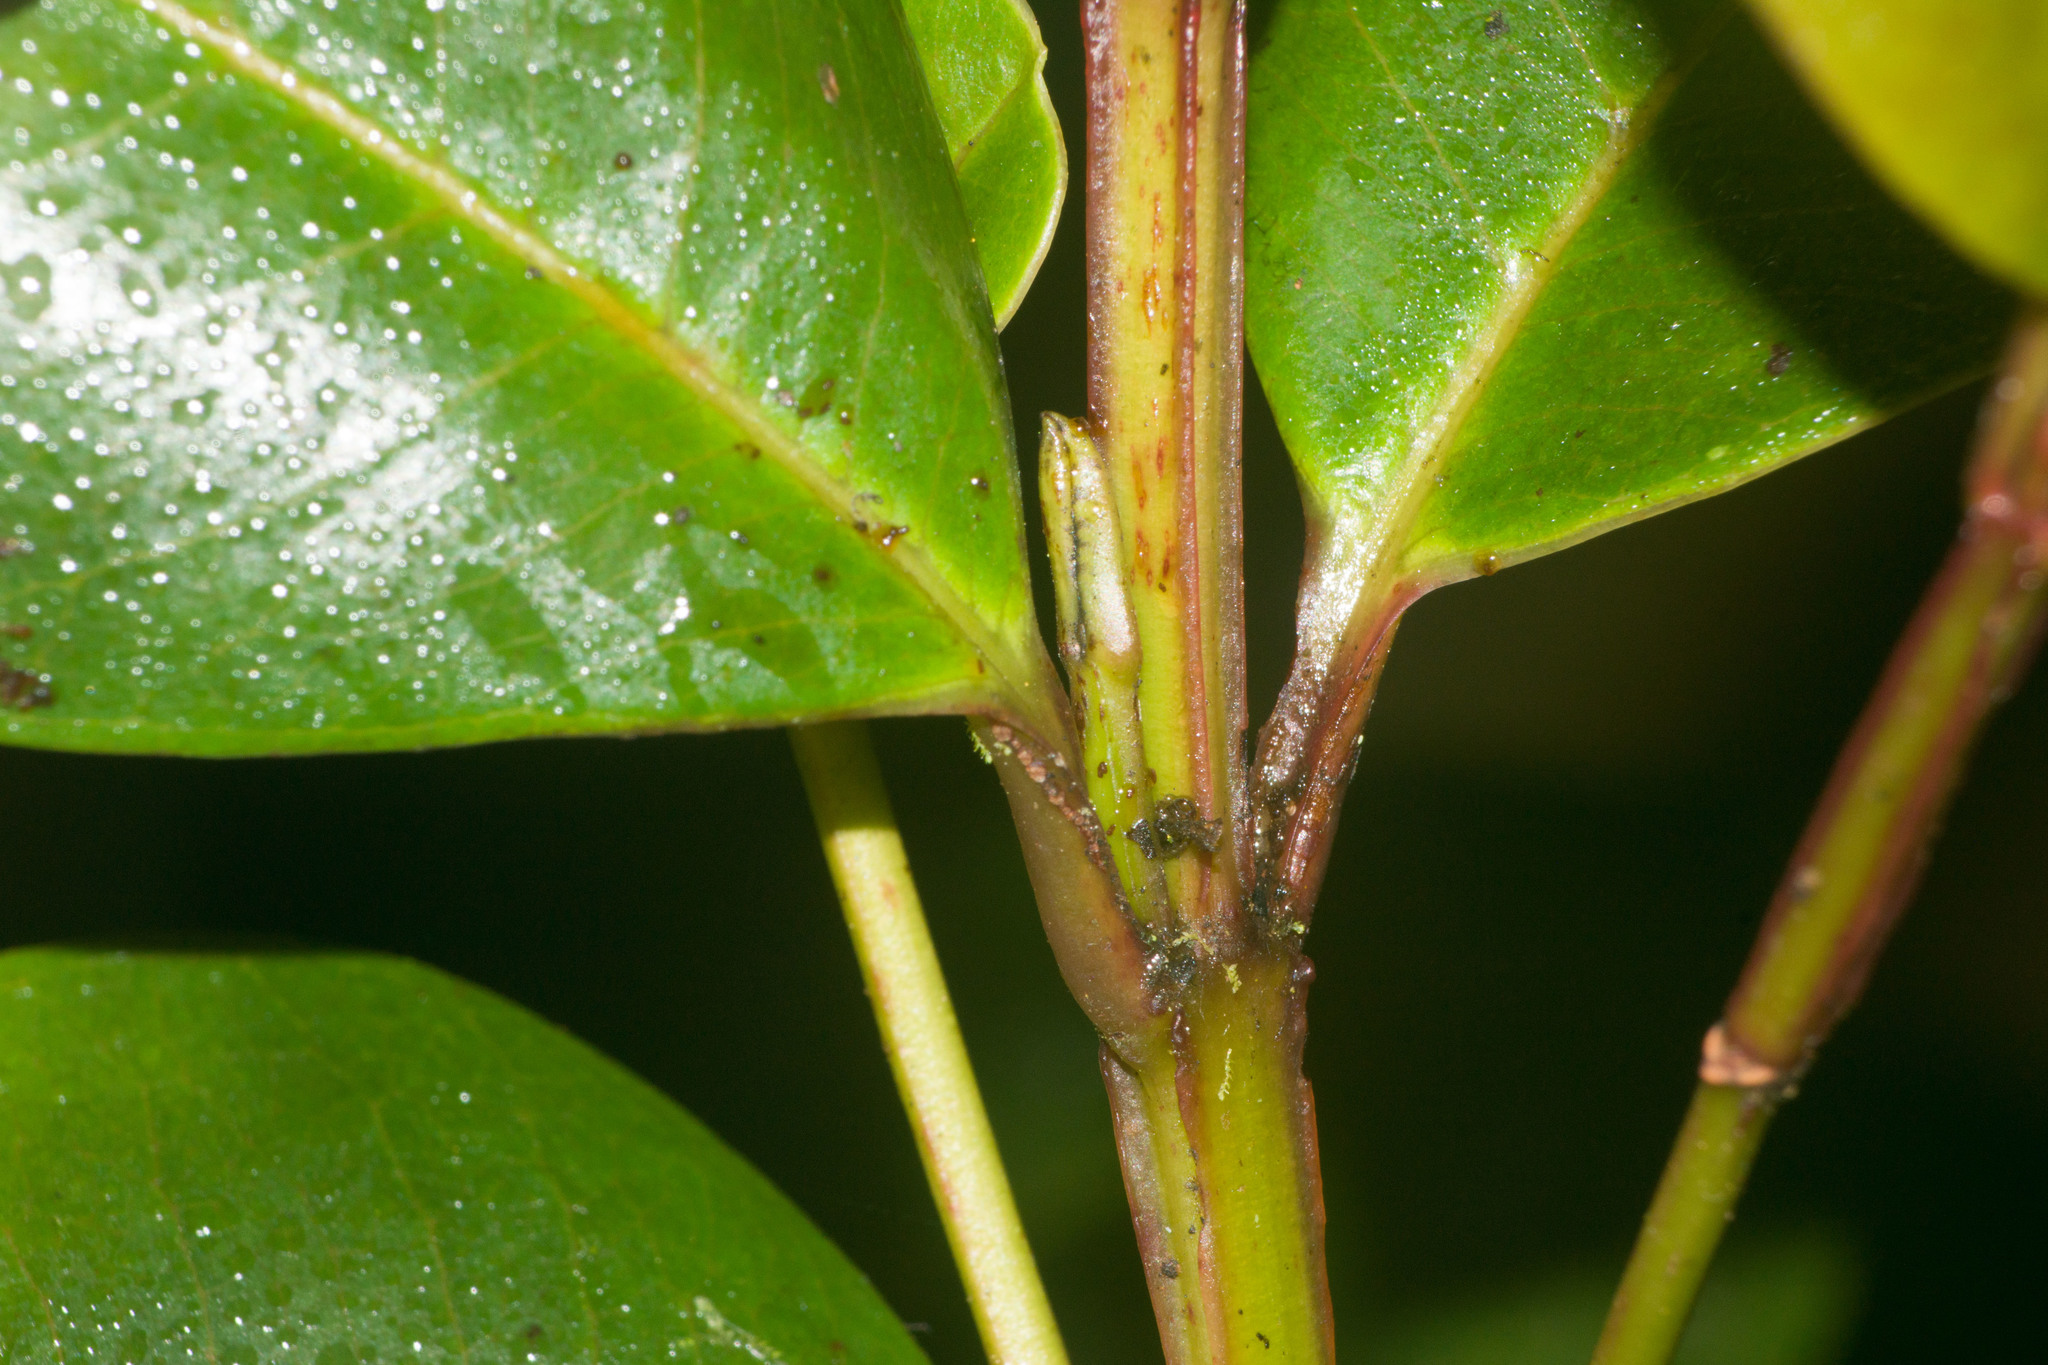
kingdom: Plantae
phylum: Tracheophyta
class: Magnoliopsida
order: Myrtales
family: Myrtaceae
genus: Syzygium
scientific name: Syzygium sandwicense
